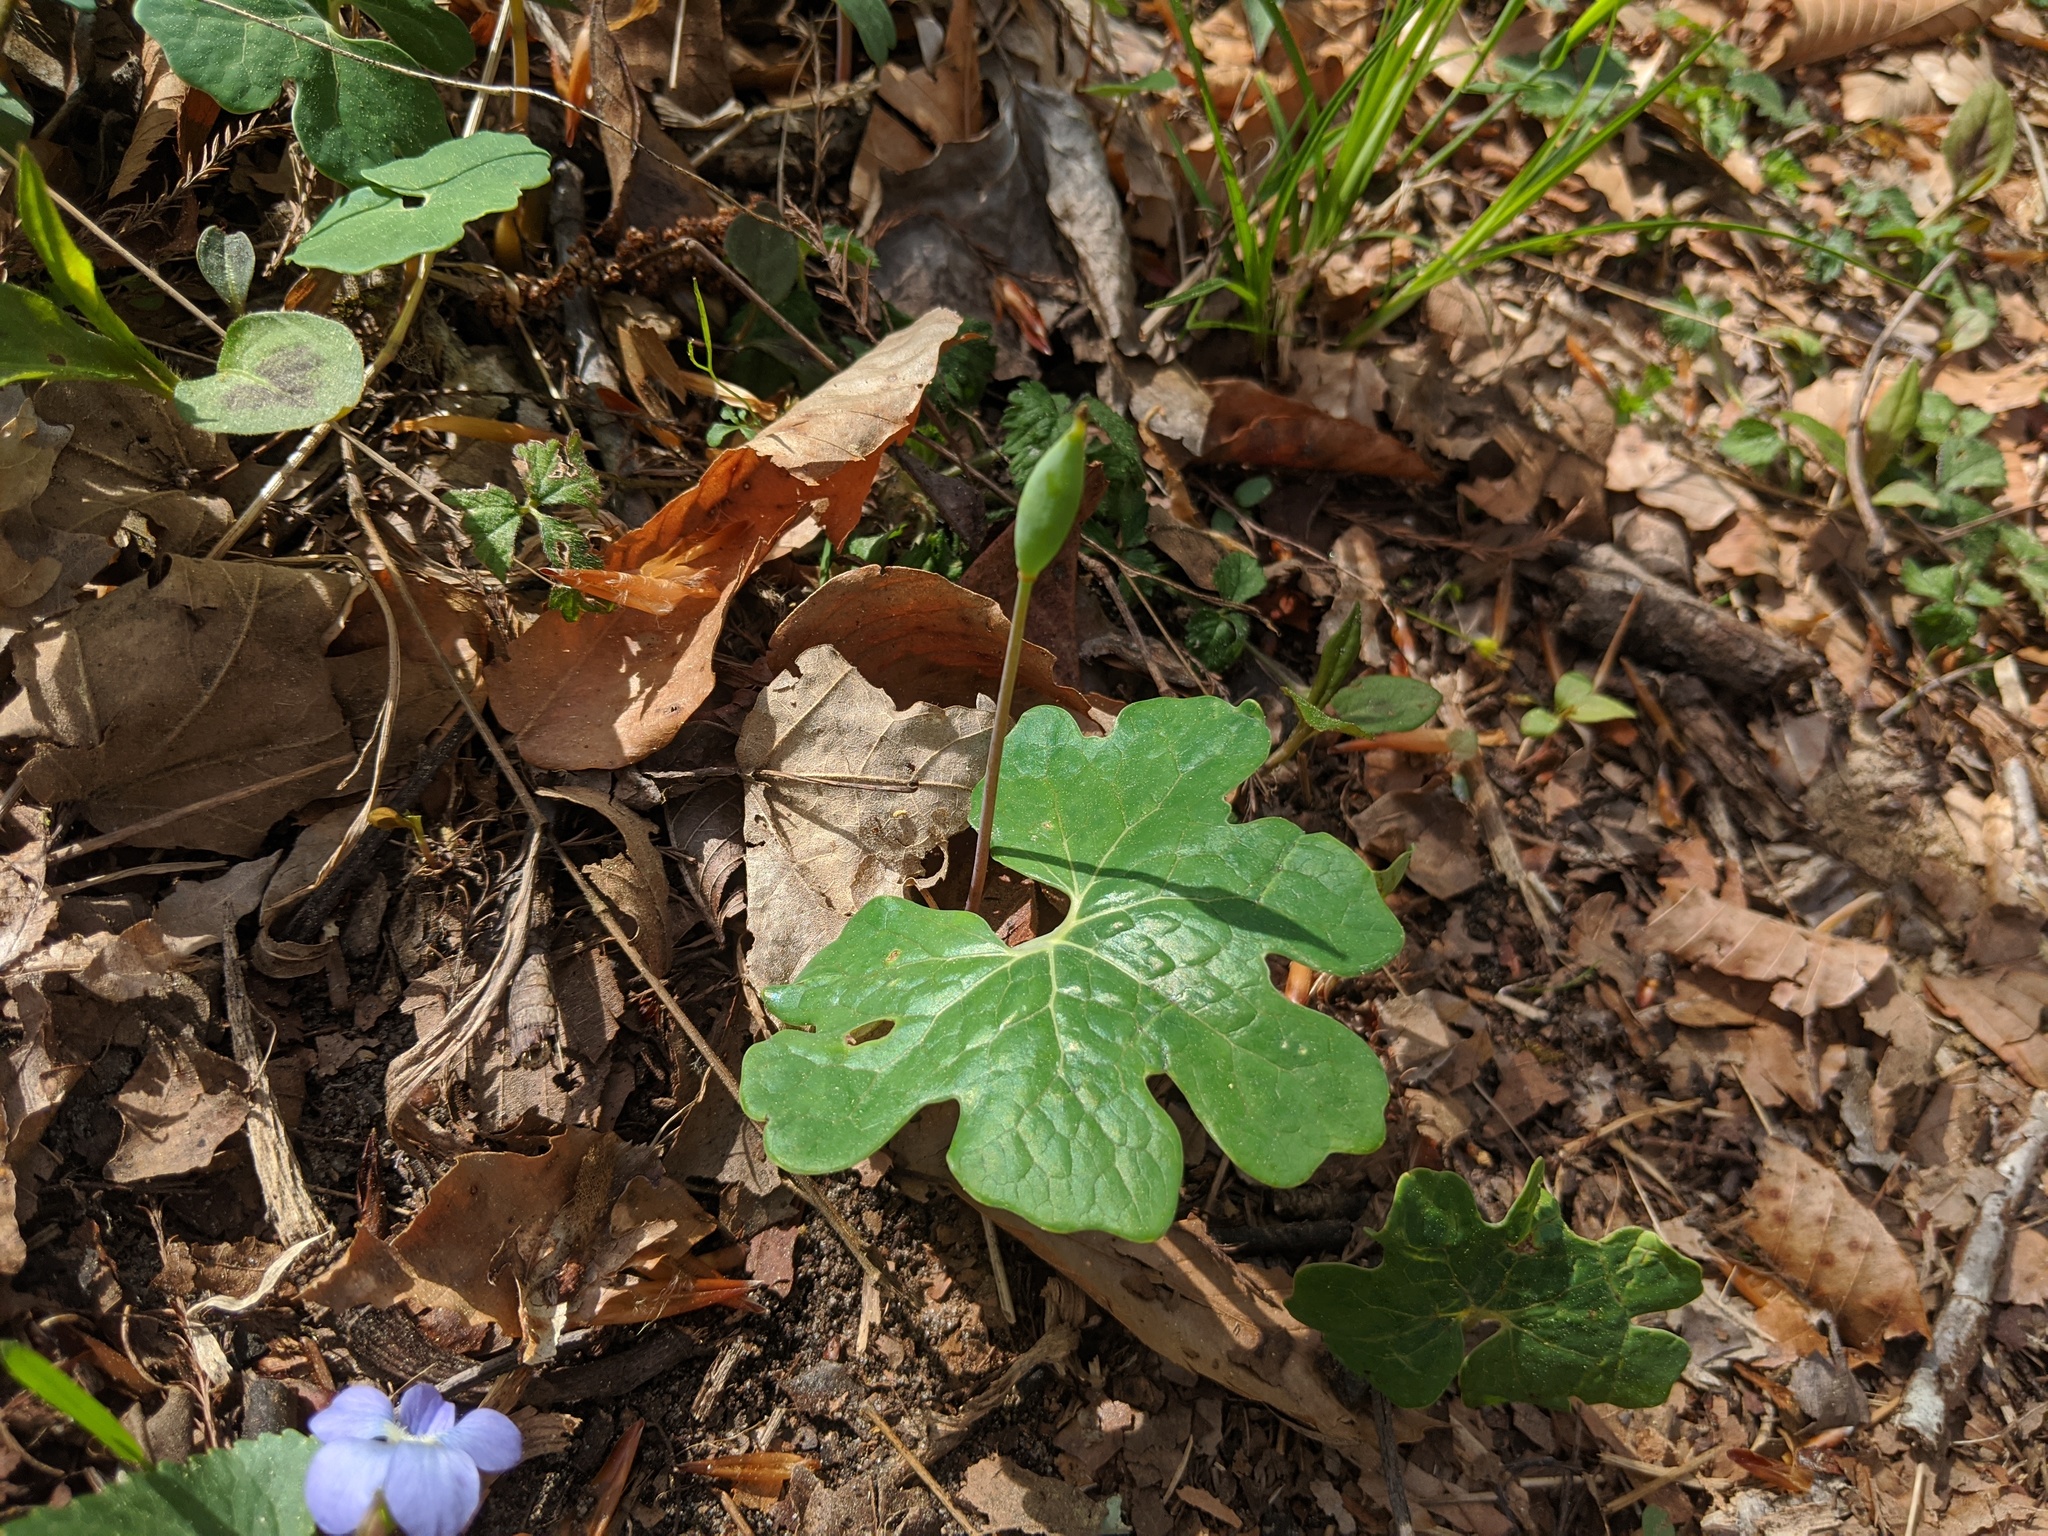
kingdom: Plantae
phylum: Tracheophyta
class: Magnoliopsida
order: Ranunculales
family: Papaveraceae
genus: Sanguinaria
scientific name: Sanguinaria canadensis
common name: Bloodroot
